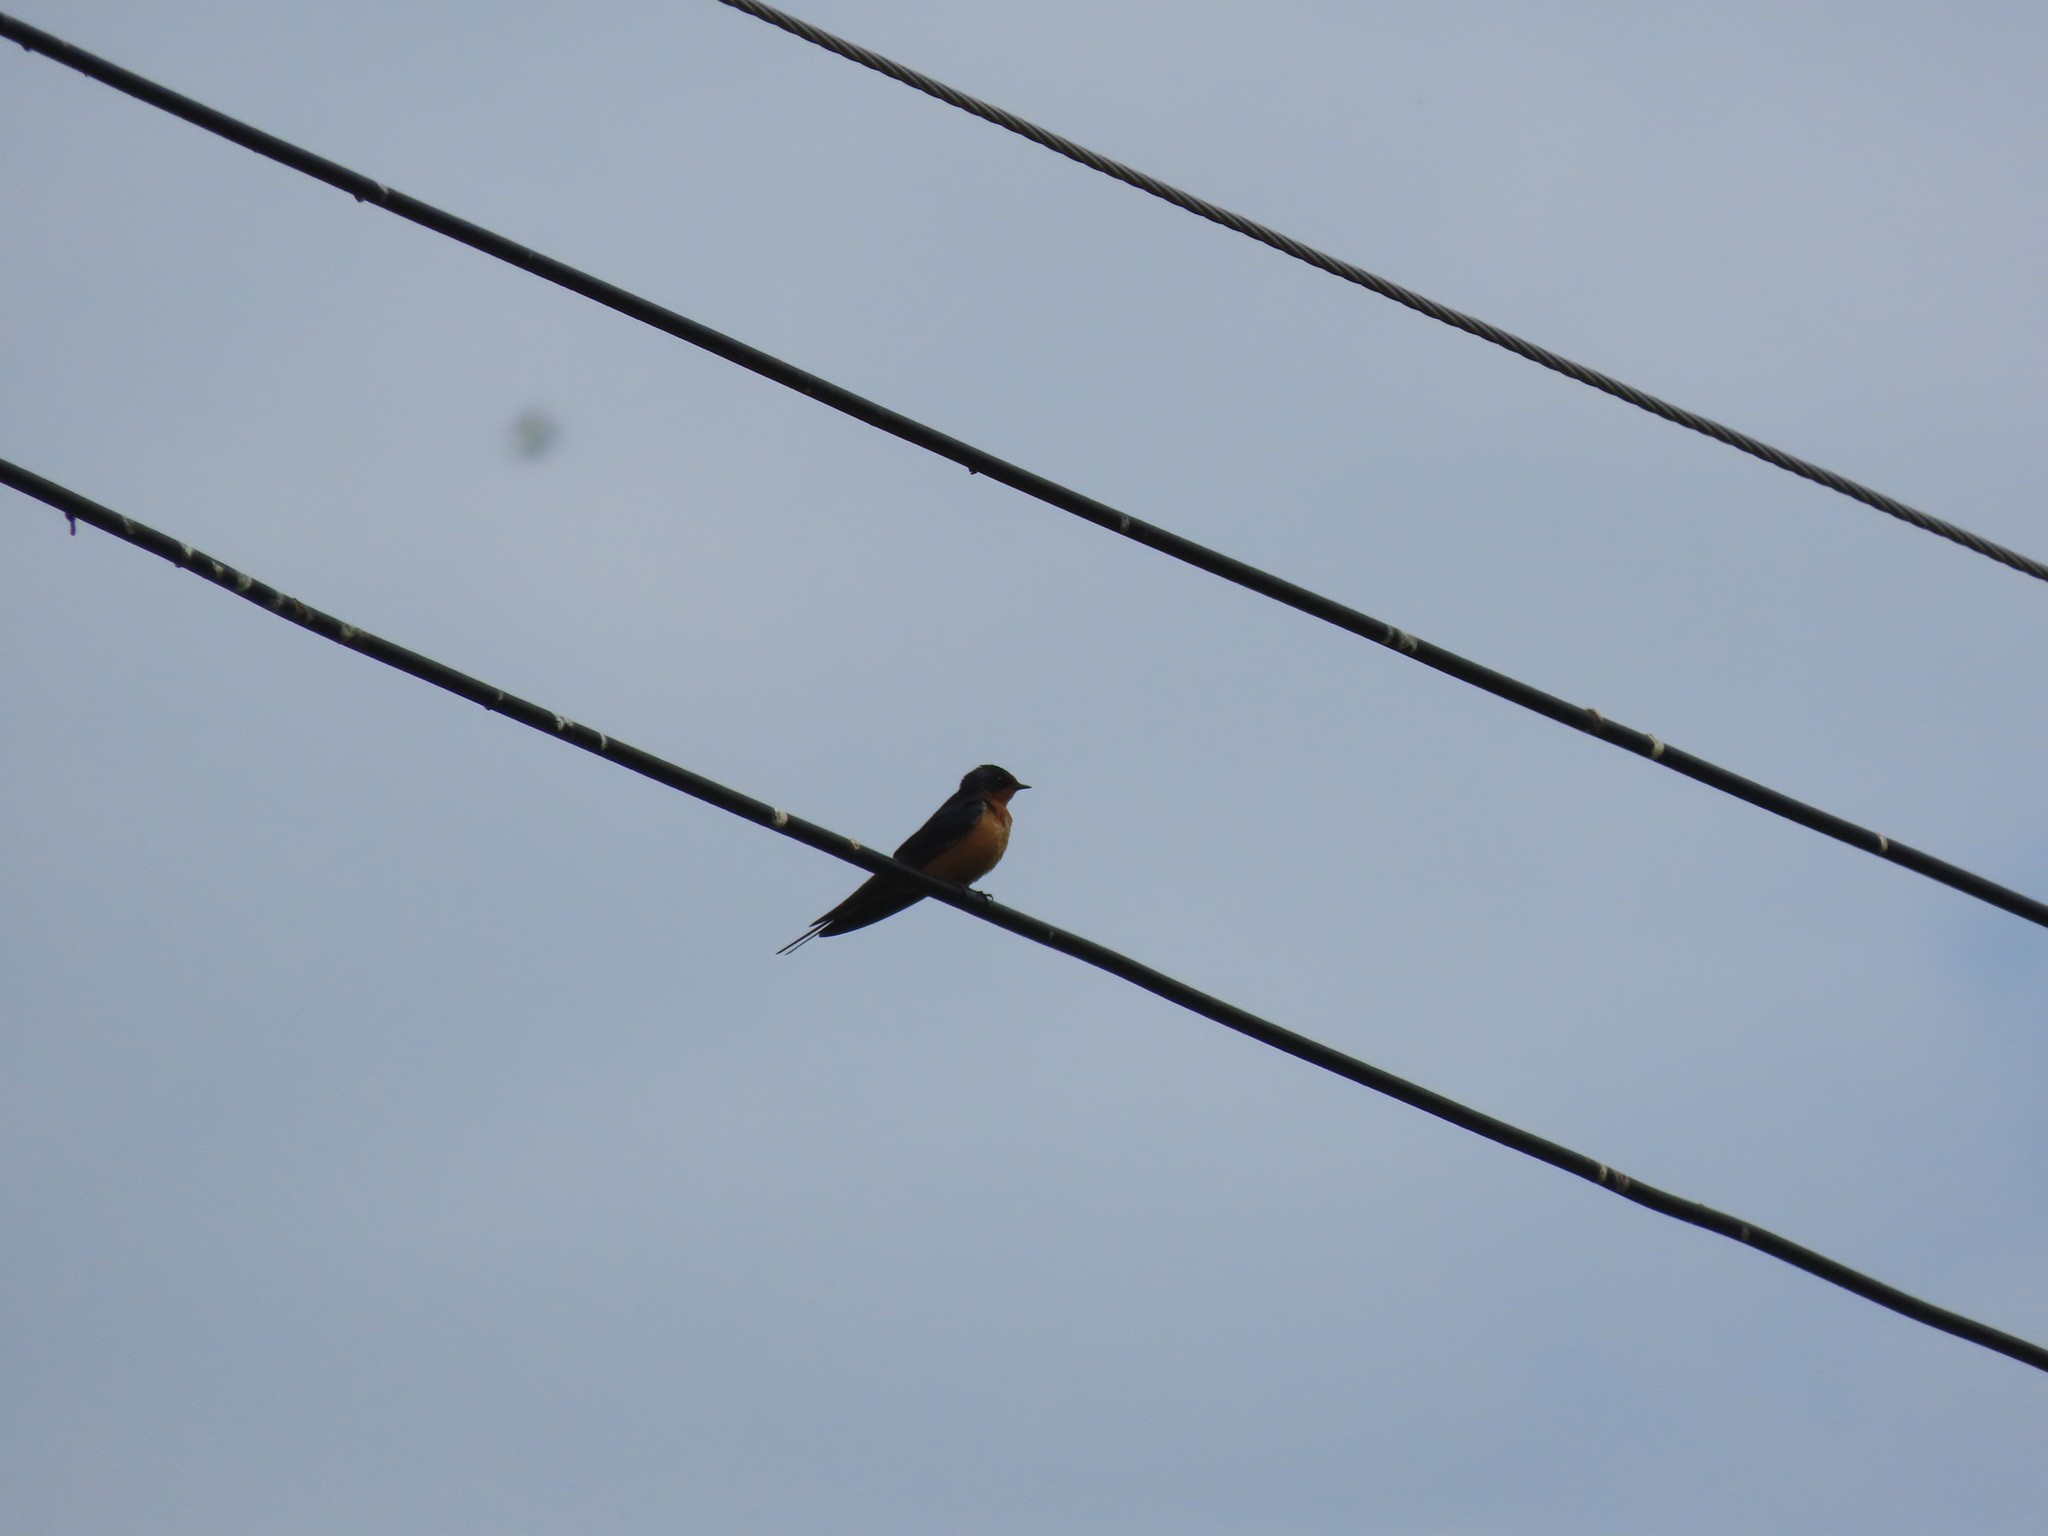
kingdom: Animalia
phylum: Chordata
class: Aves
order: Passeriformes
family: Hirundinidae
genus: Hirundo
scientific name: Hirundo rustica
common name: Barn swallow
